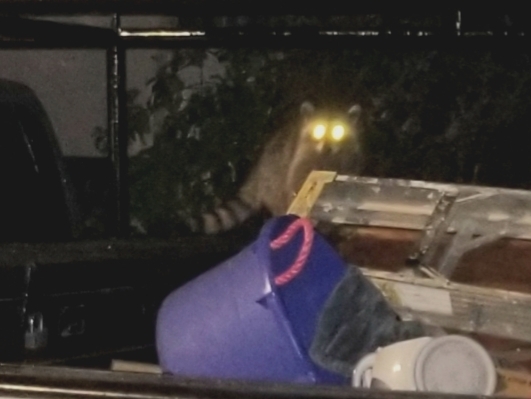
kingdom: Animalia
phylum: Chordata
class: Mammalia
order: Carnivora
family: Procyonidae
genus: Procyon
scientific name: Procyon lotor
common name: Raccoon
